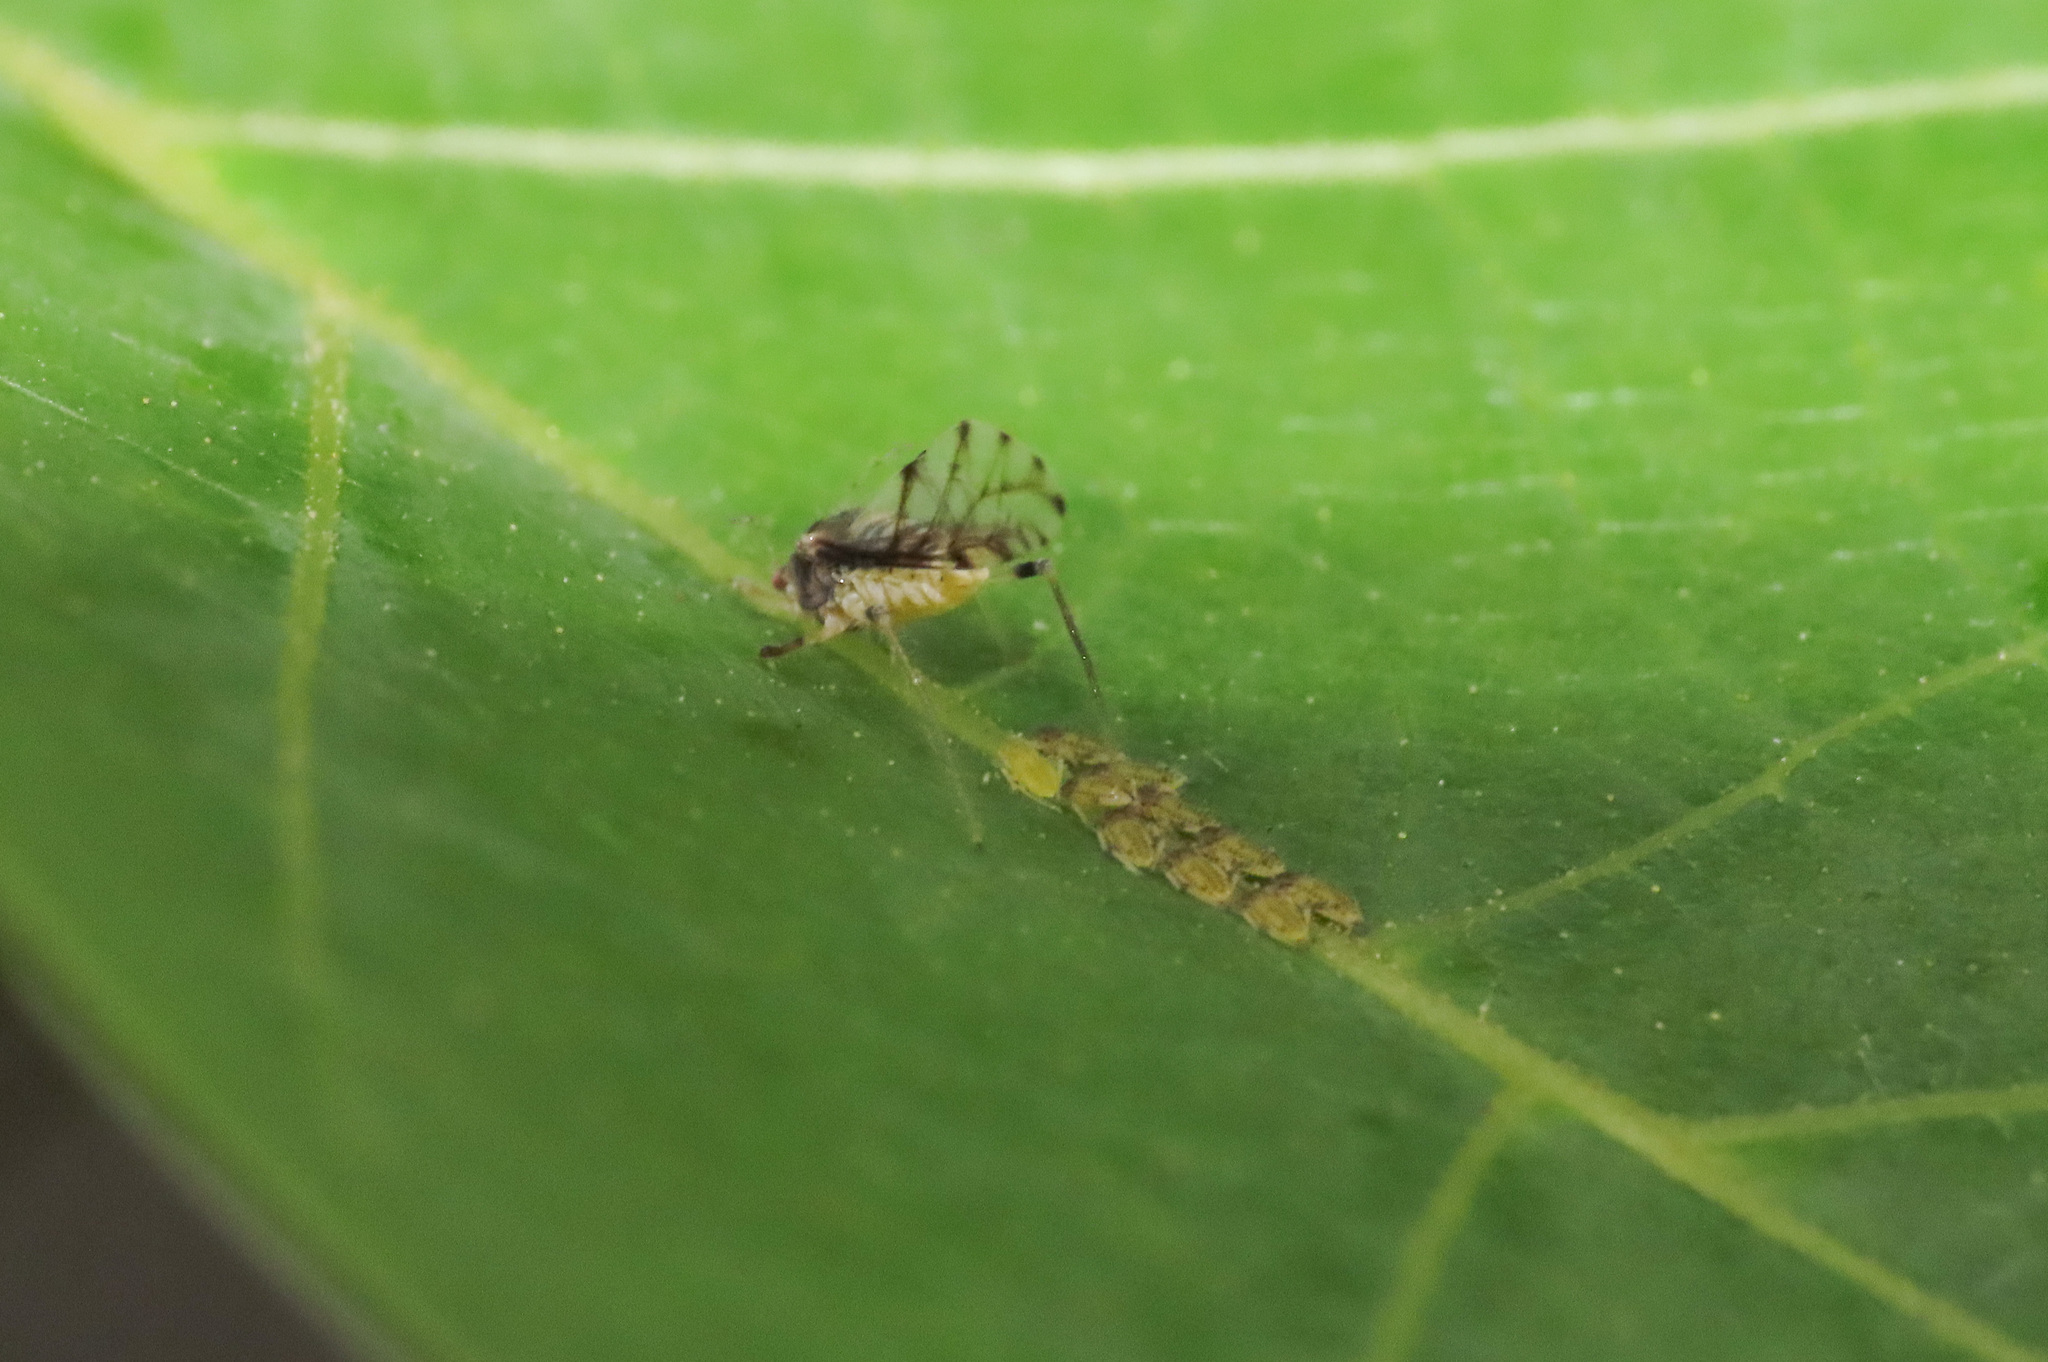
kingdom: Animalia
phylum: Arthropoda
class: Insecta
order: Hemiptera
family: Aphididae
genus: Panaphis
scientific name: Panaphis juglandis
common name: Large walnut aphid
